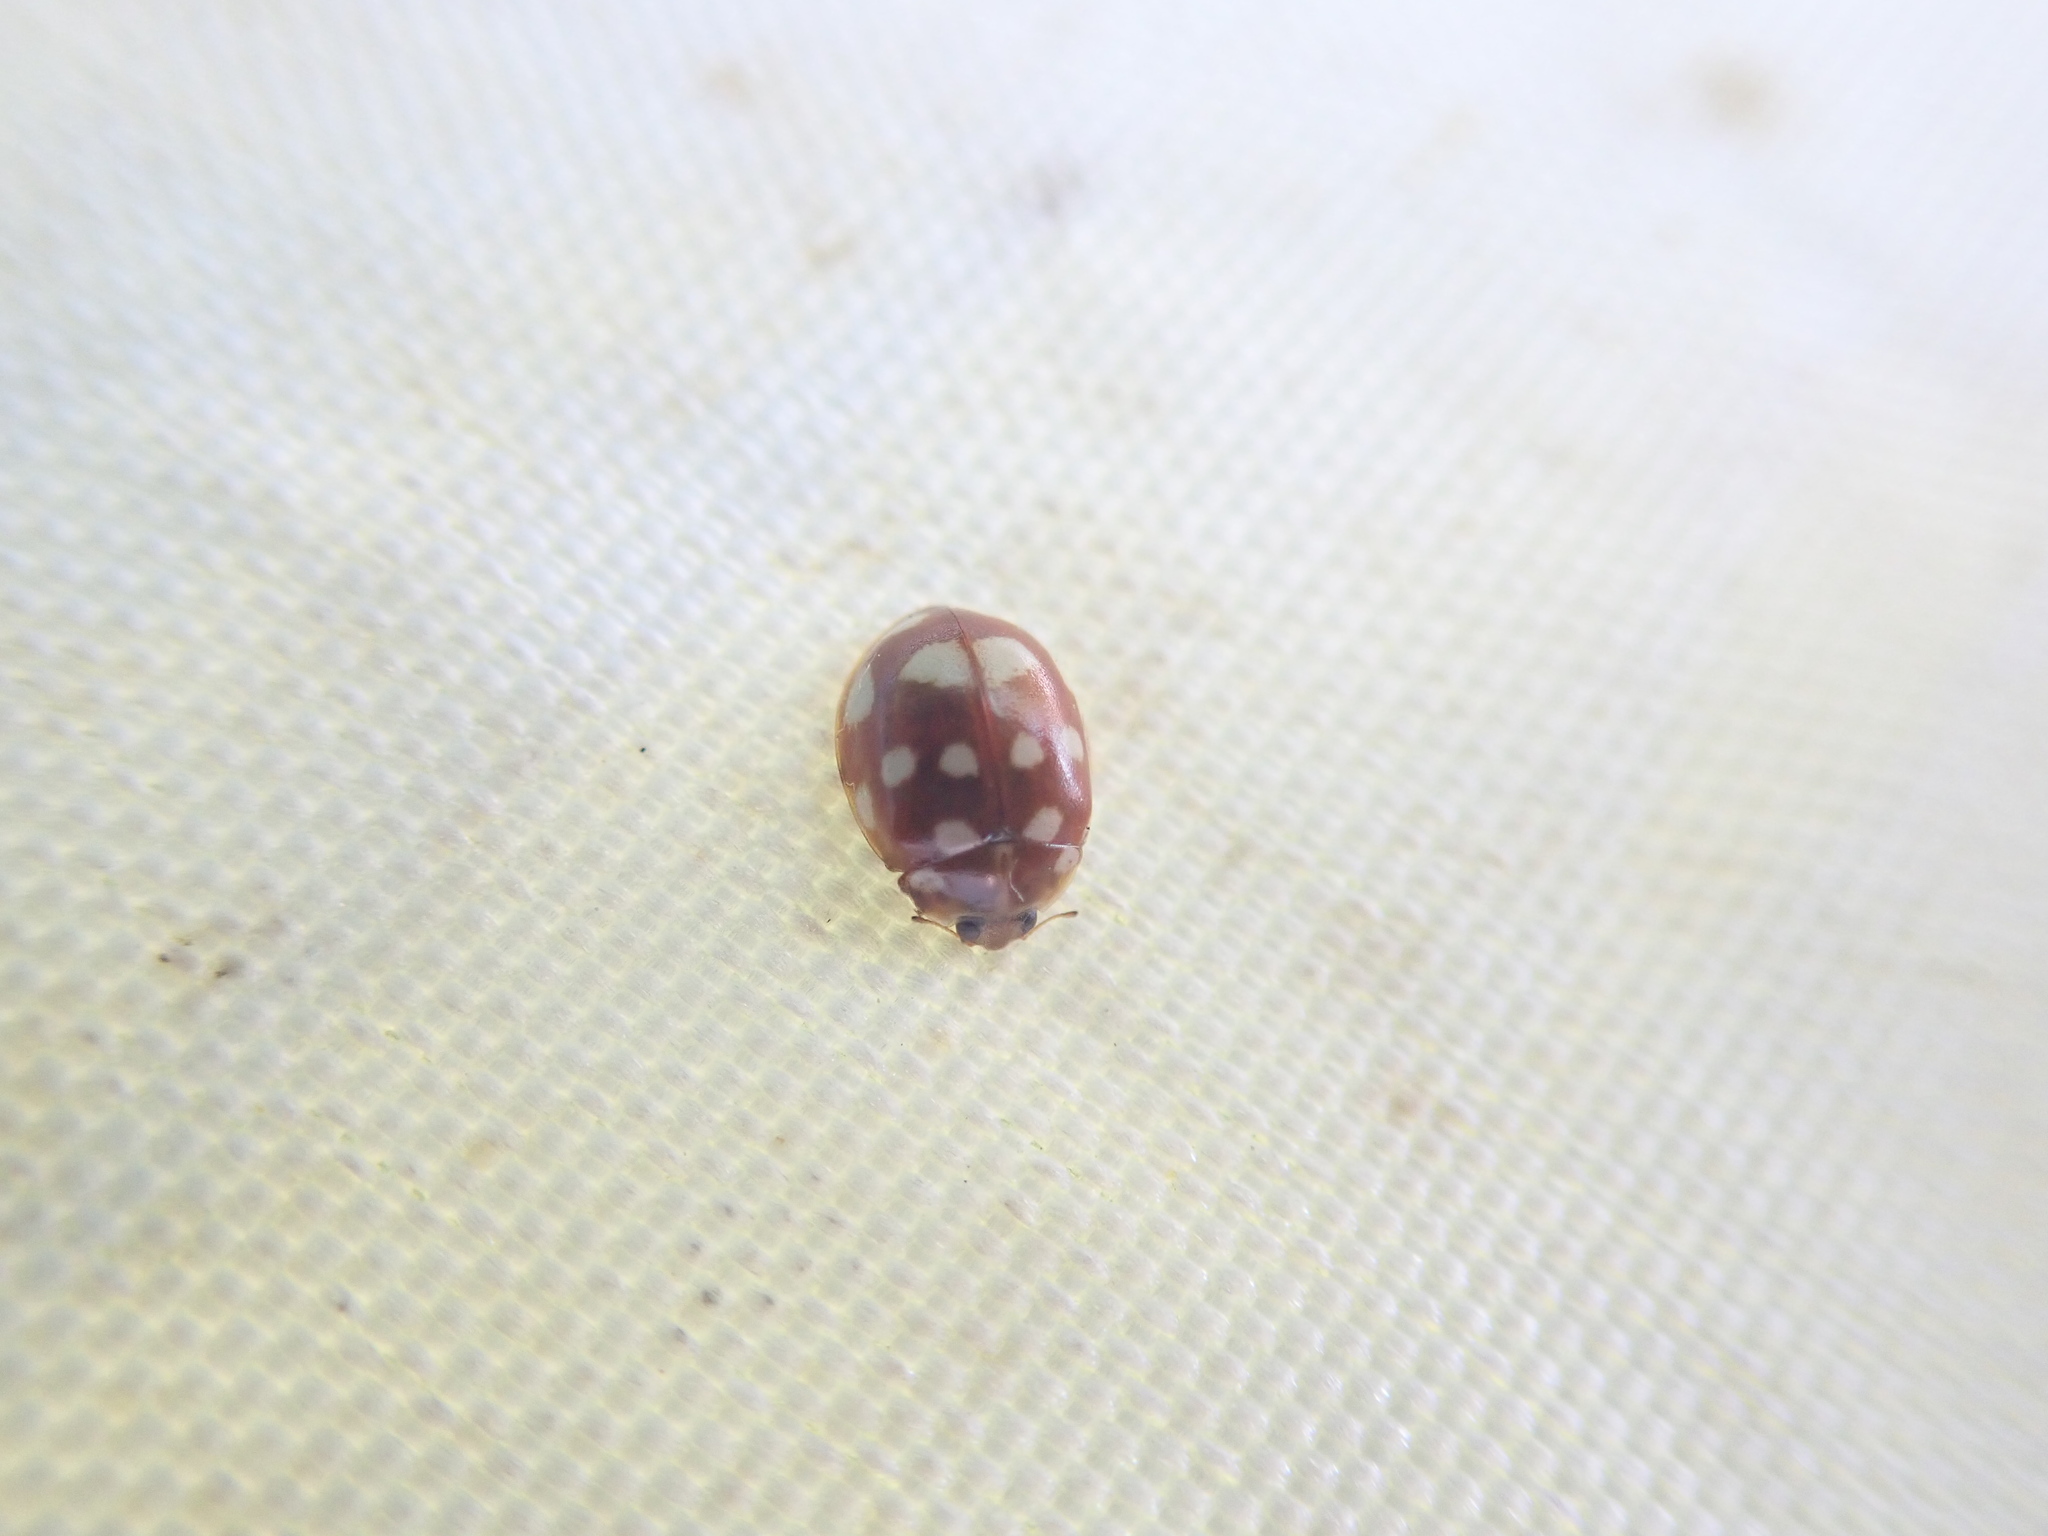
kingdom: Animalia
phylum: Arthropoda
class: Insecta
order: Coleoptera
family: Coccinellidae
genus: Calvia
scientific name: Calvia quatuordecimguttata
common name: Cream-spot ladybird
